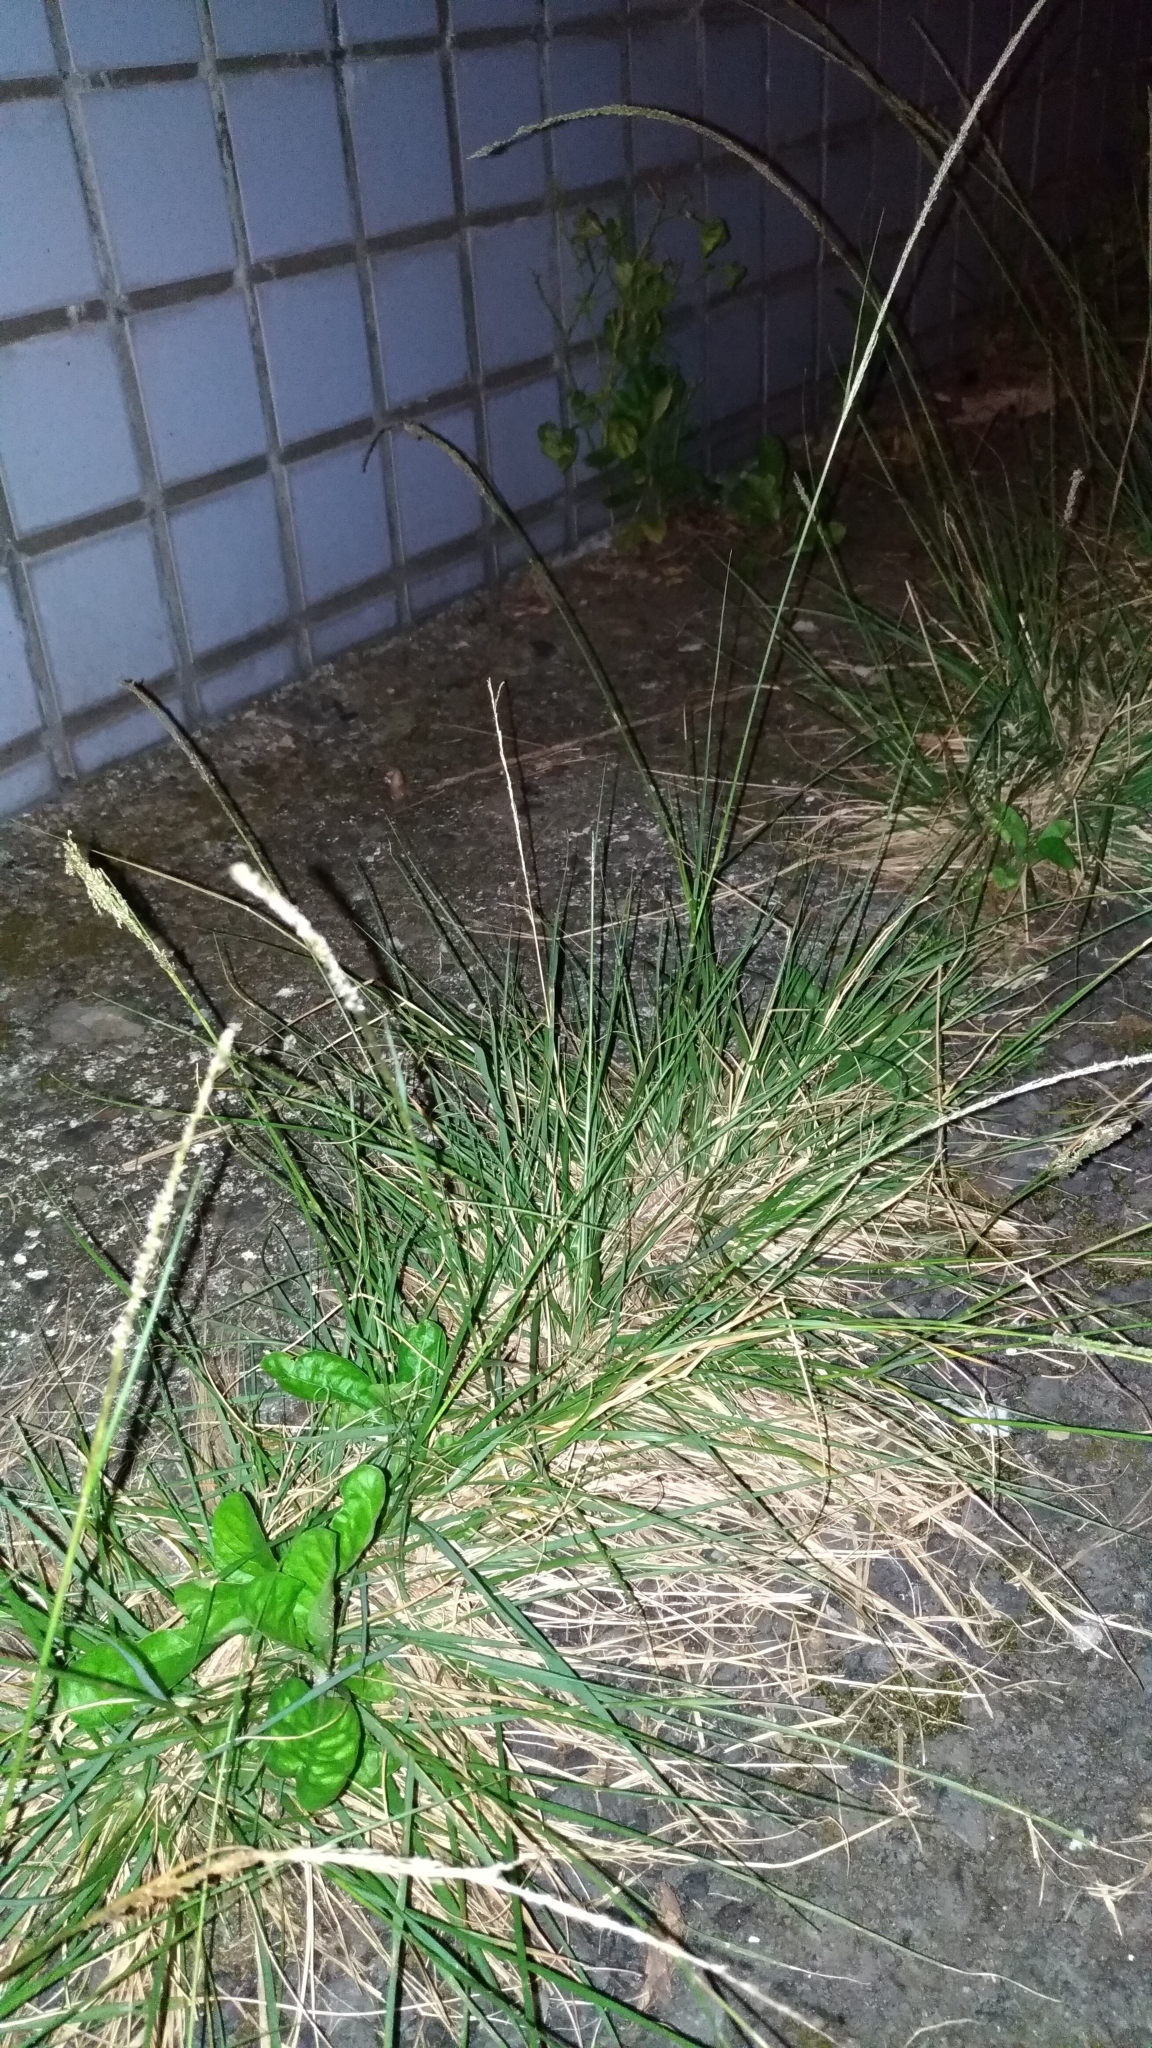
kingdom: Plantae
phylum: Tracheophyta
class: Liliopsida
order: Poales
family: Poaceae
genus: Sporobolus
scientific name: Sporobolus indicus
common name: Smut grass
